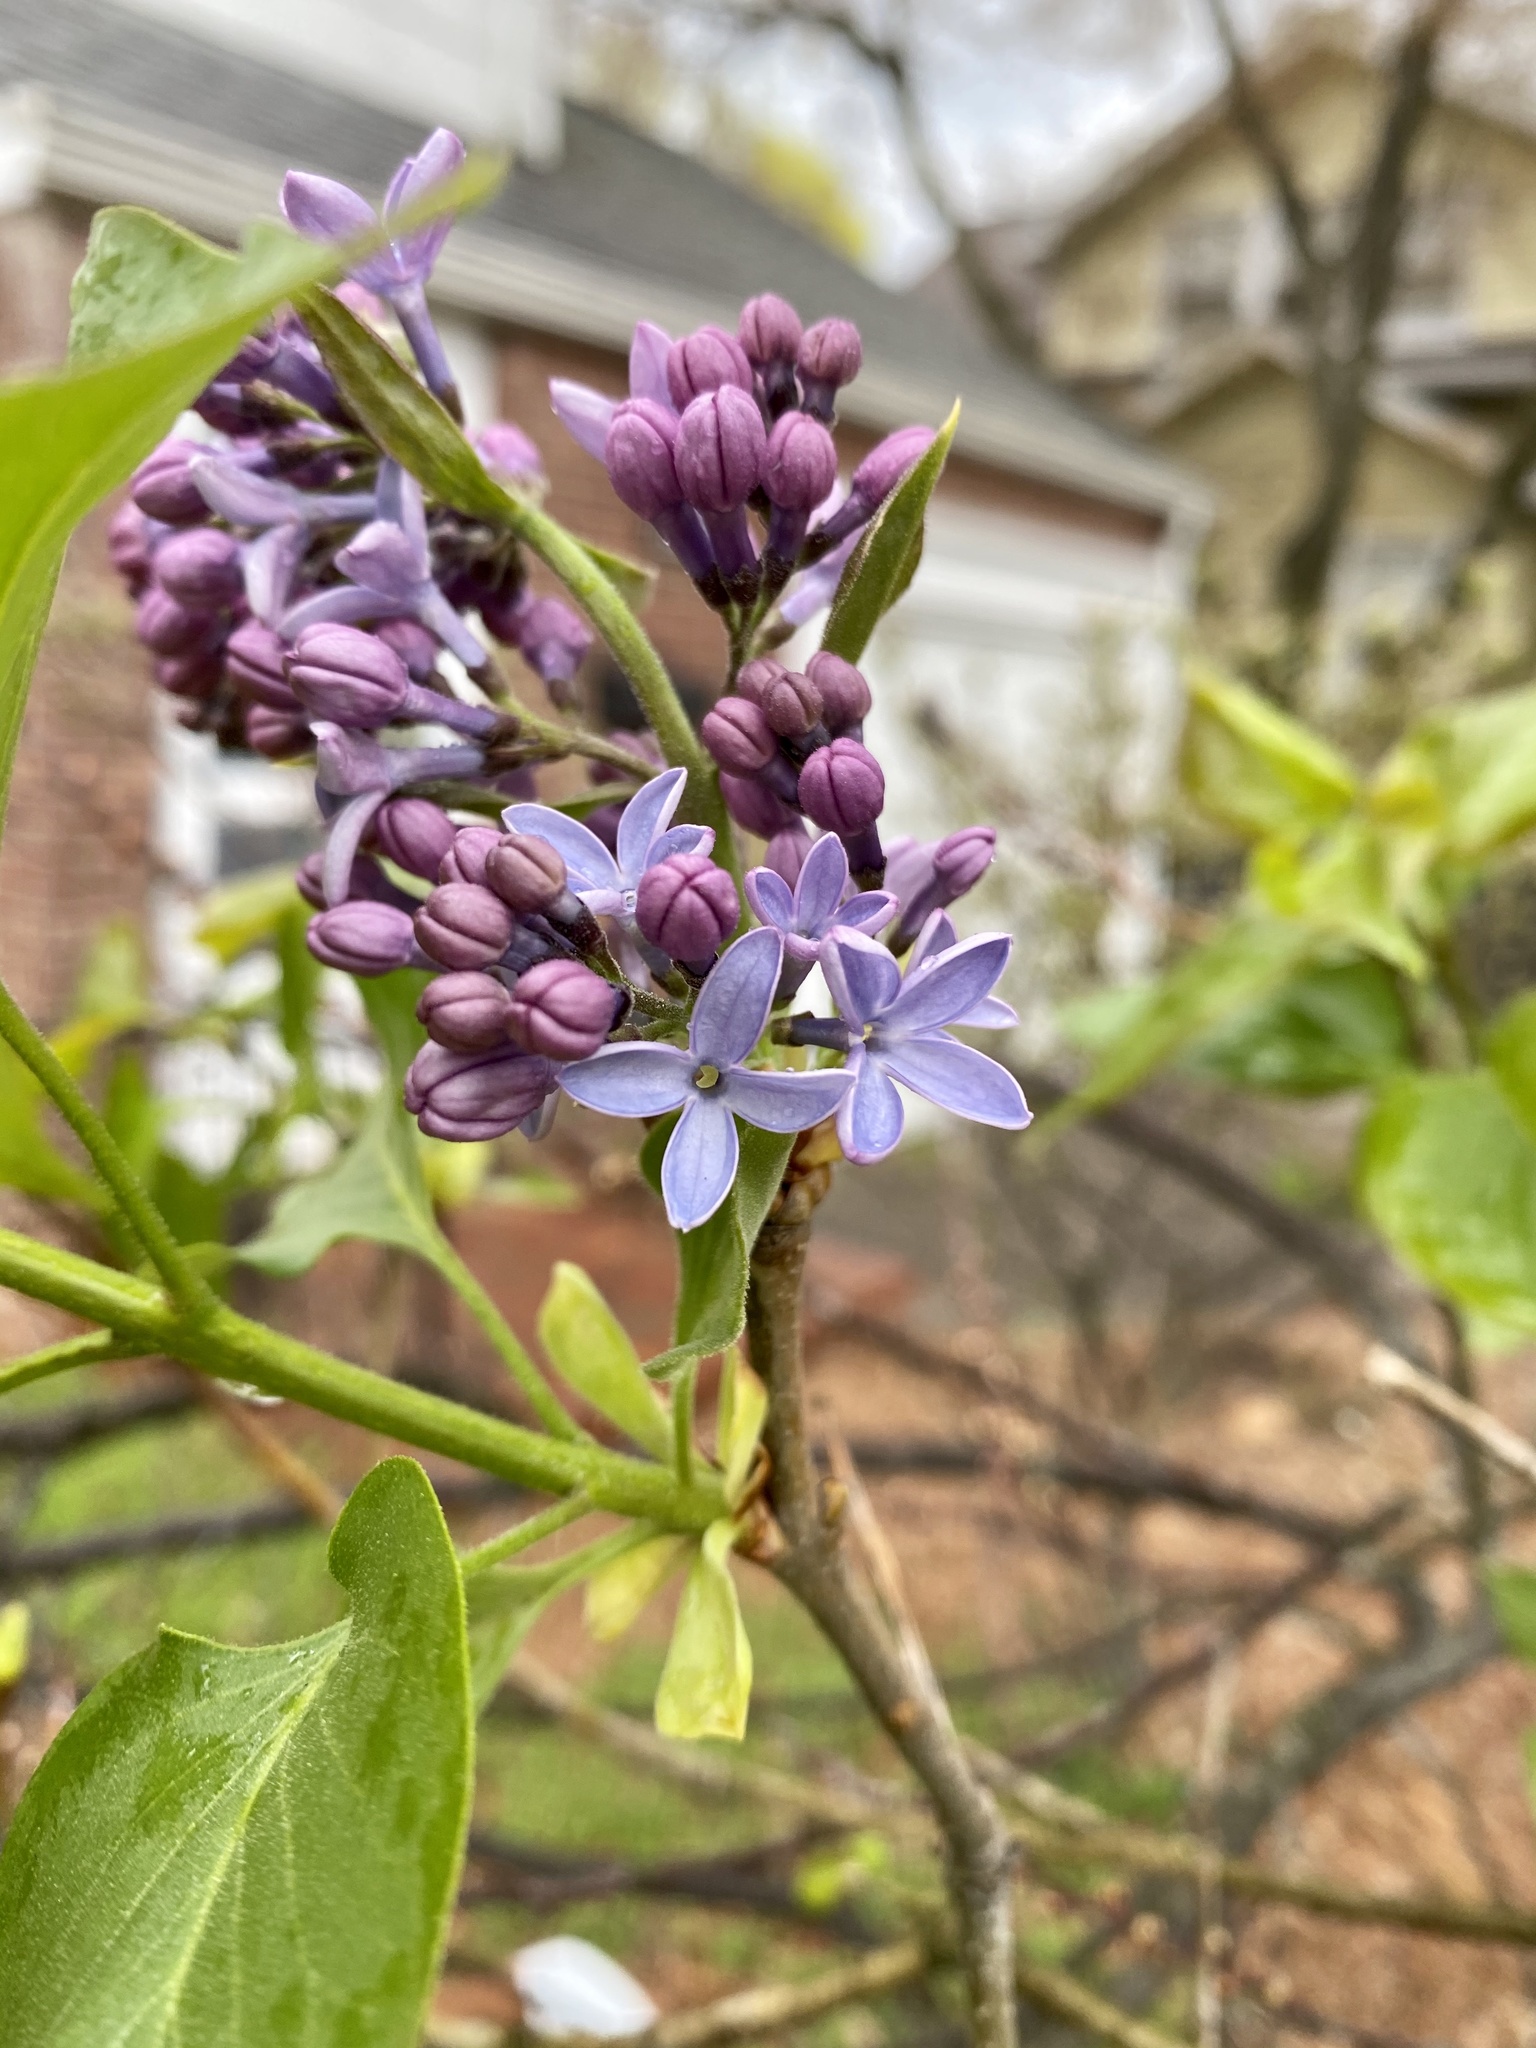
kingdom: Plantae
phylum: Tracheophyta
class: Magnoliopsida
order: Lamiales
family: Oleaceae
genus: Syringa
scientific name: Syringa vulgaris
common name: Common lilac
